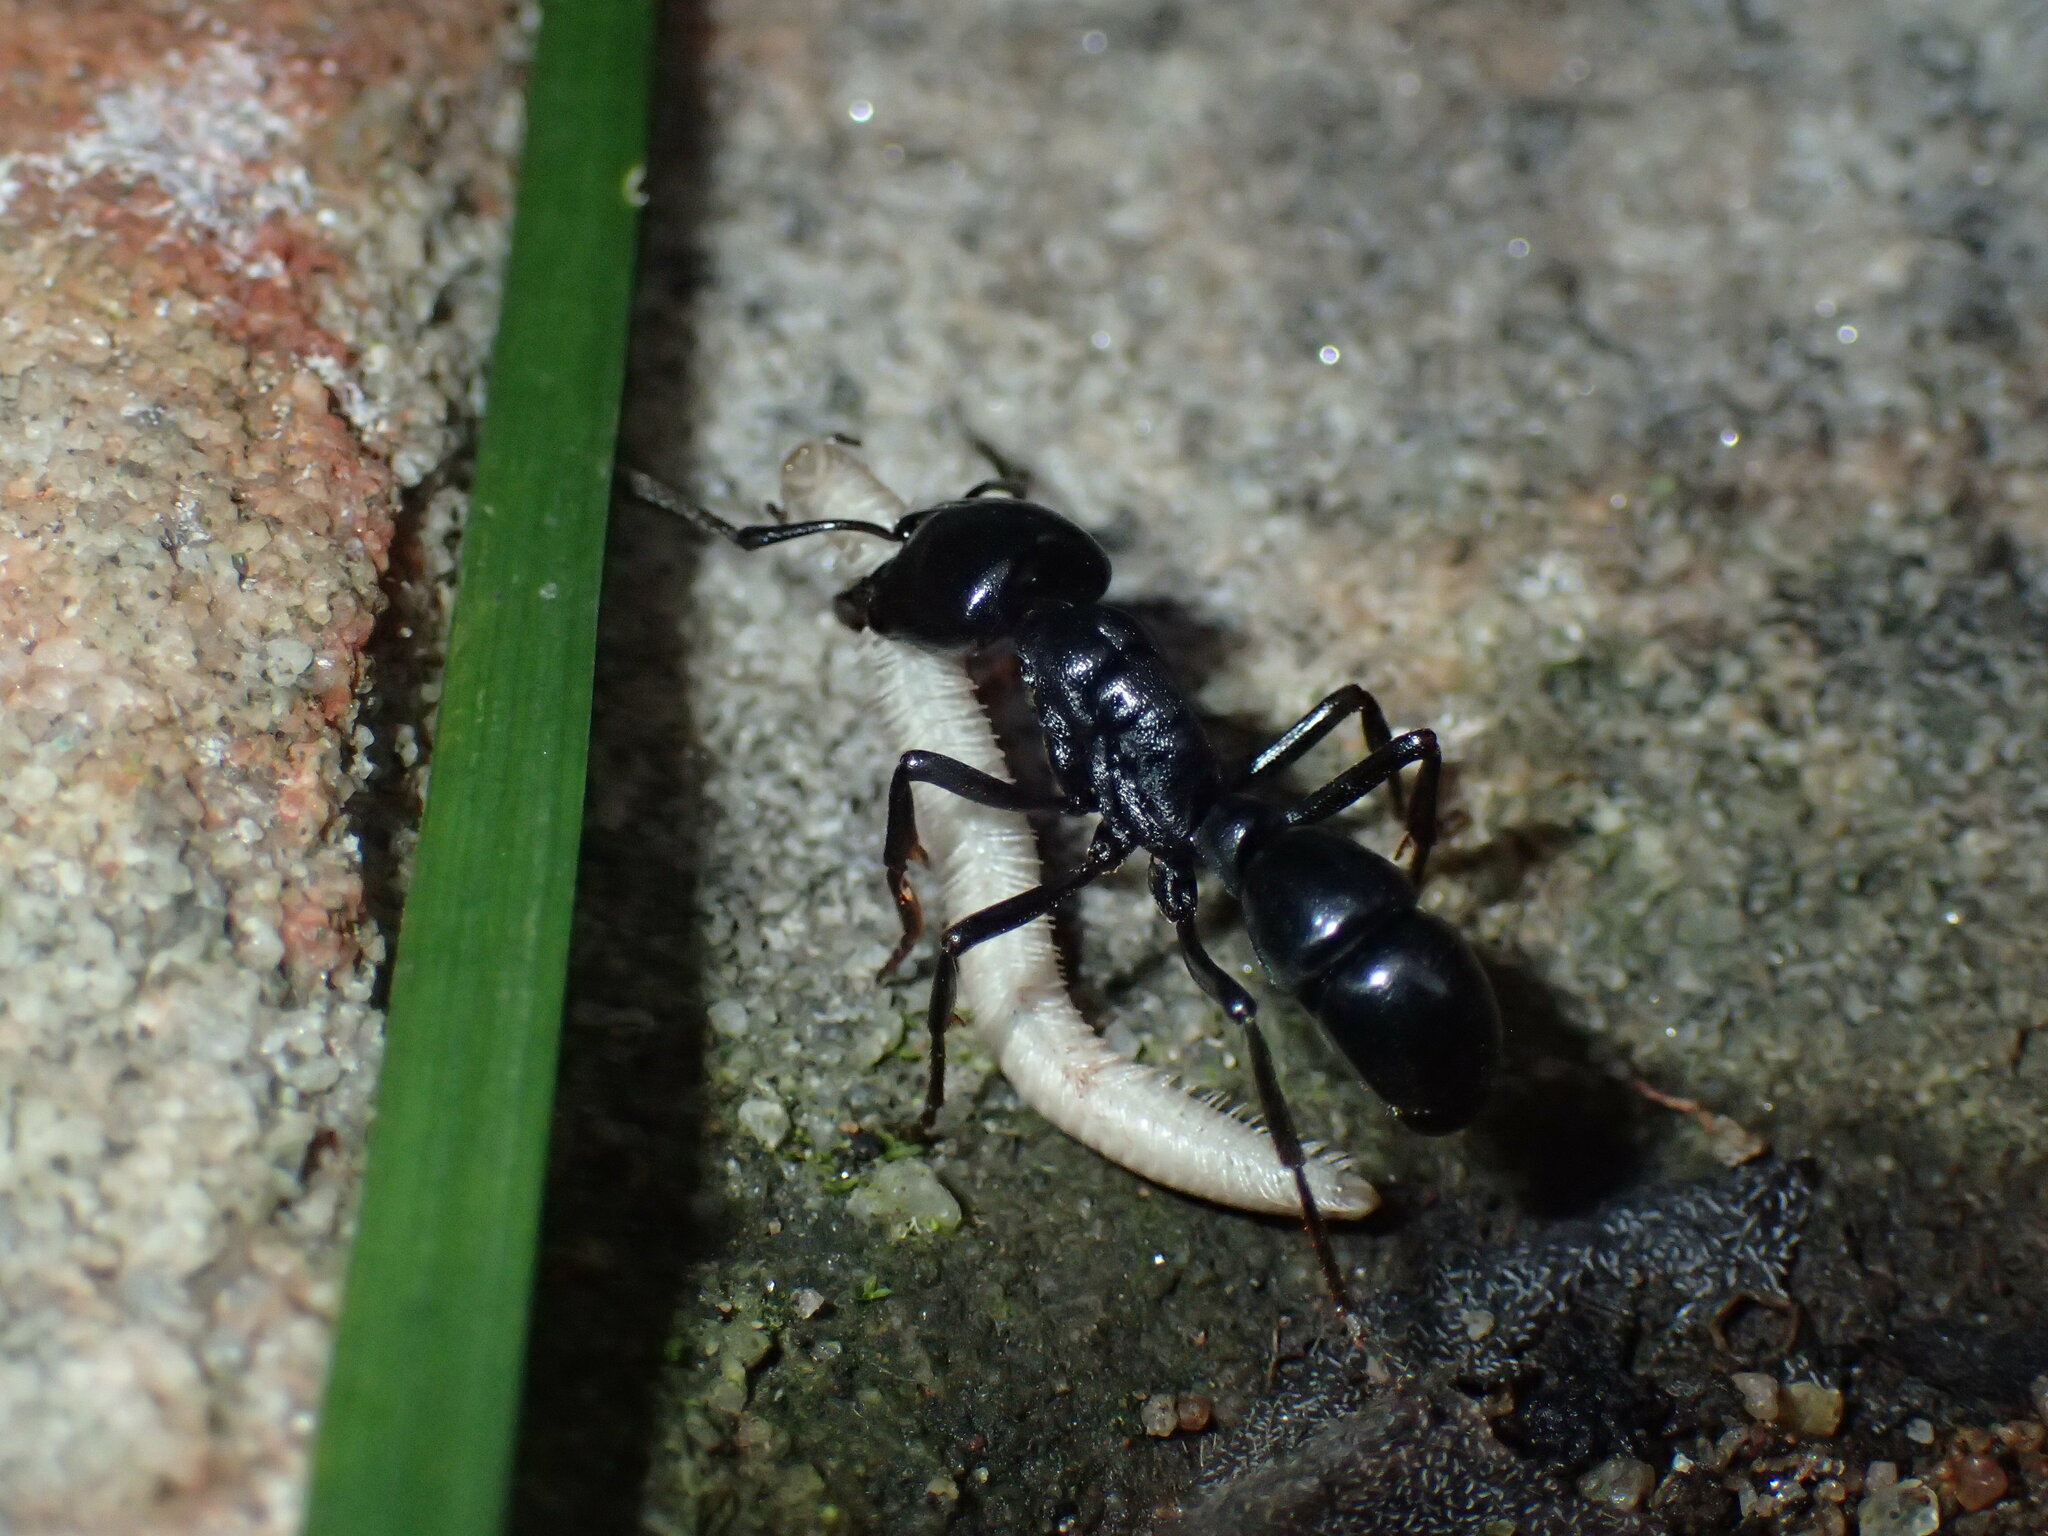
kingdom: Animalia
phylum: Arthropoda
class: Insecta
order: Hymenoptera
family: Formicidae
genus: Plectroctena
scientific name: Plectroctena mandibularis
